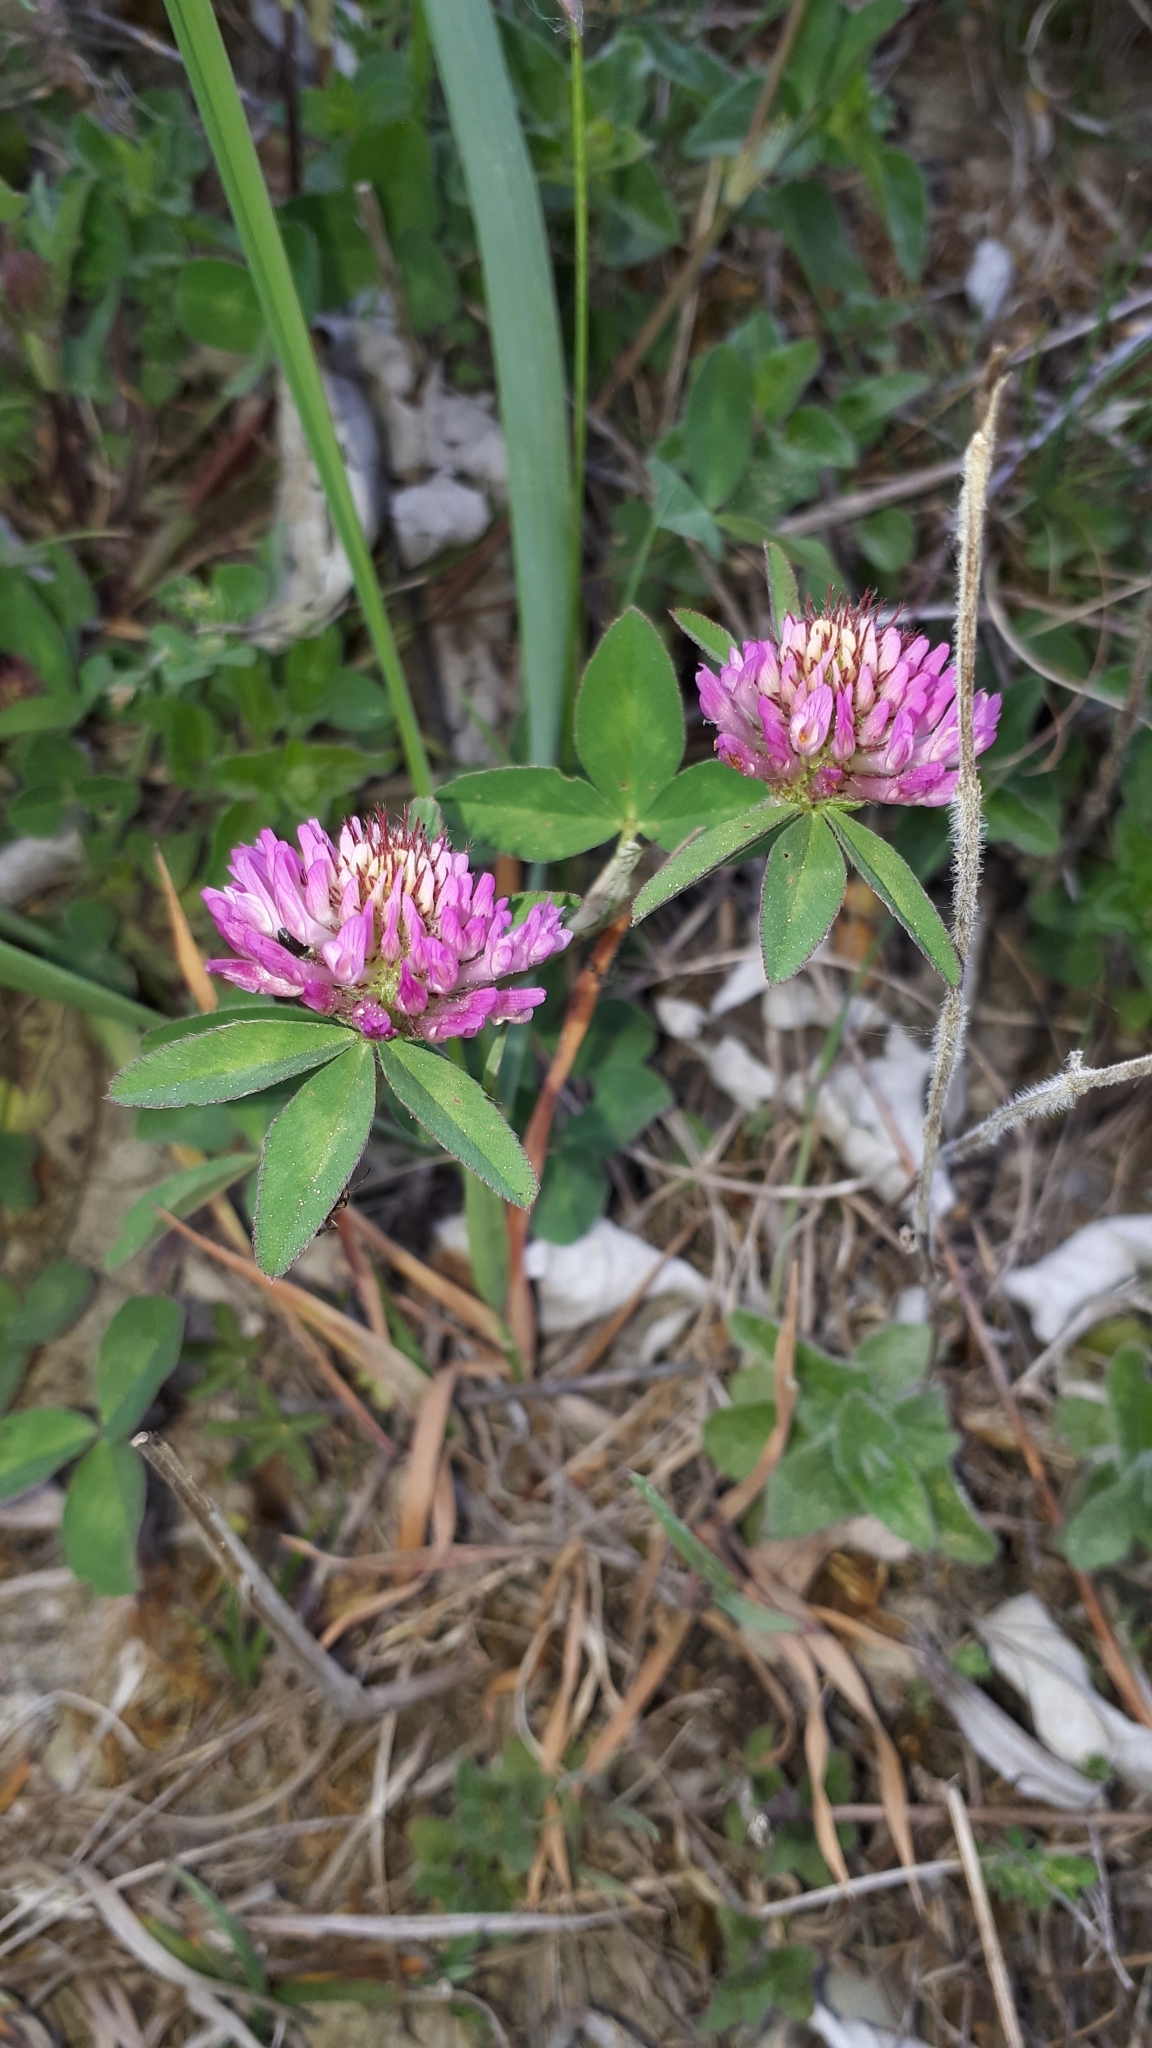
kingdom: Plantae
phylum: Tracheophyta
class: Magnoliopsida
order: Fabales
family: Fabaceae
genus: Trifolium
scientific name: Trifolium medium
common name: Zigzag clover
